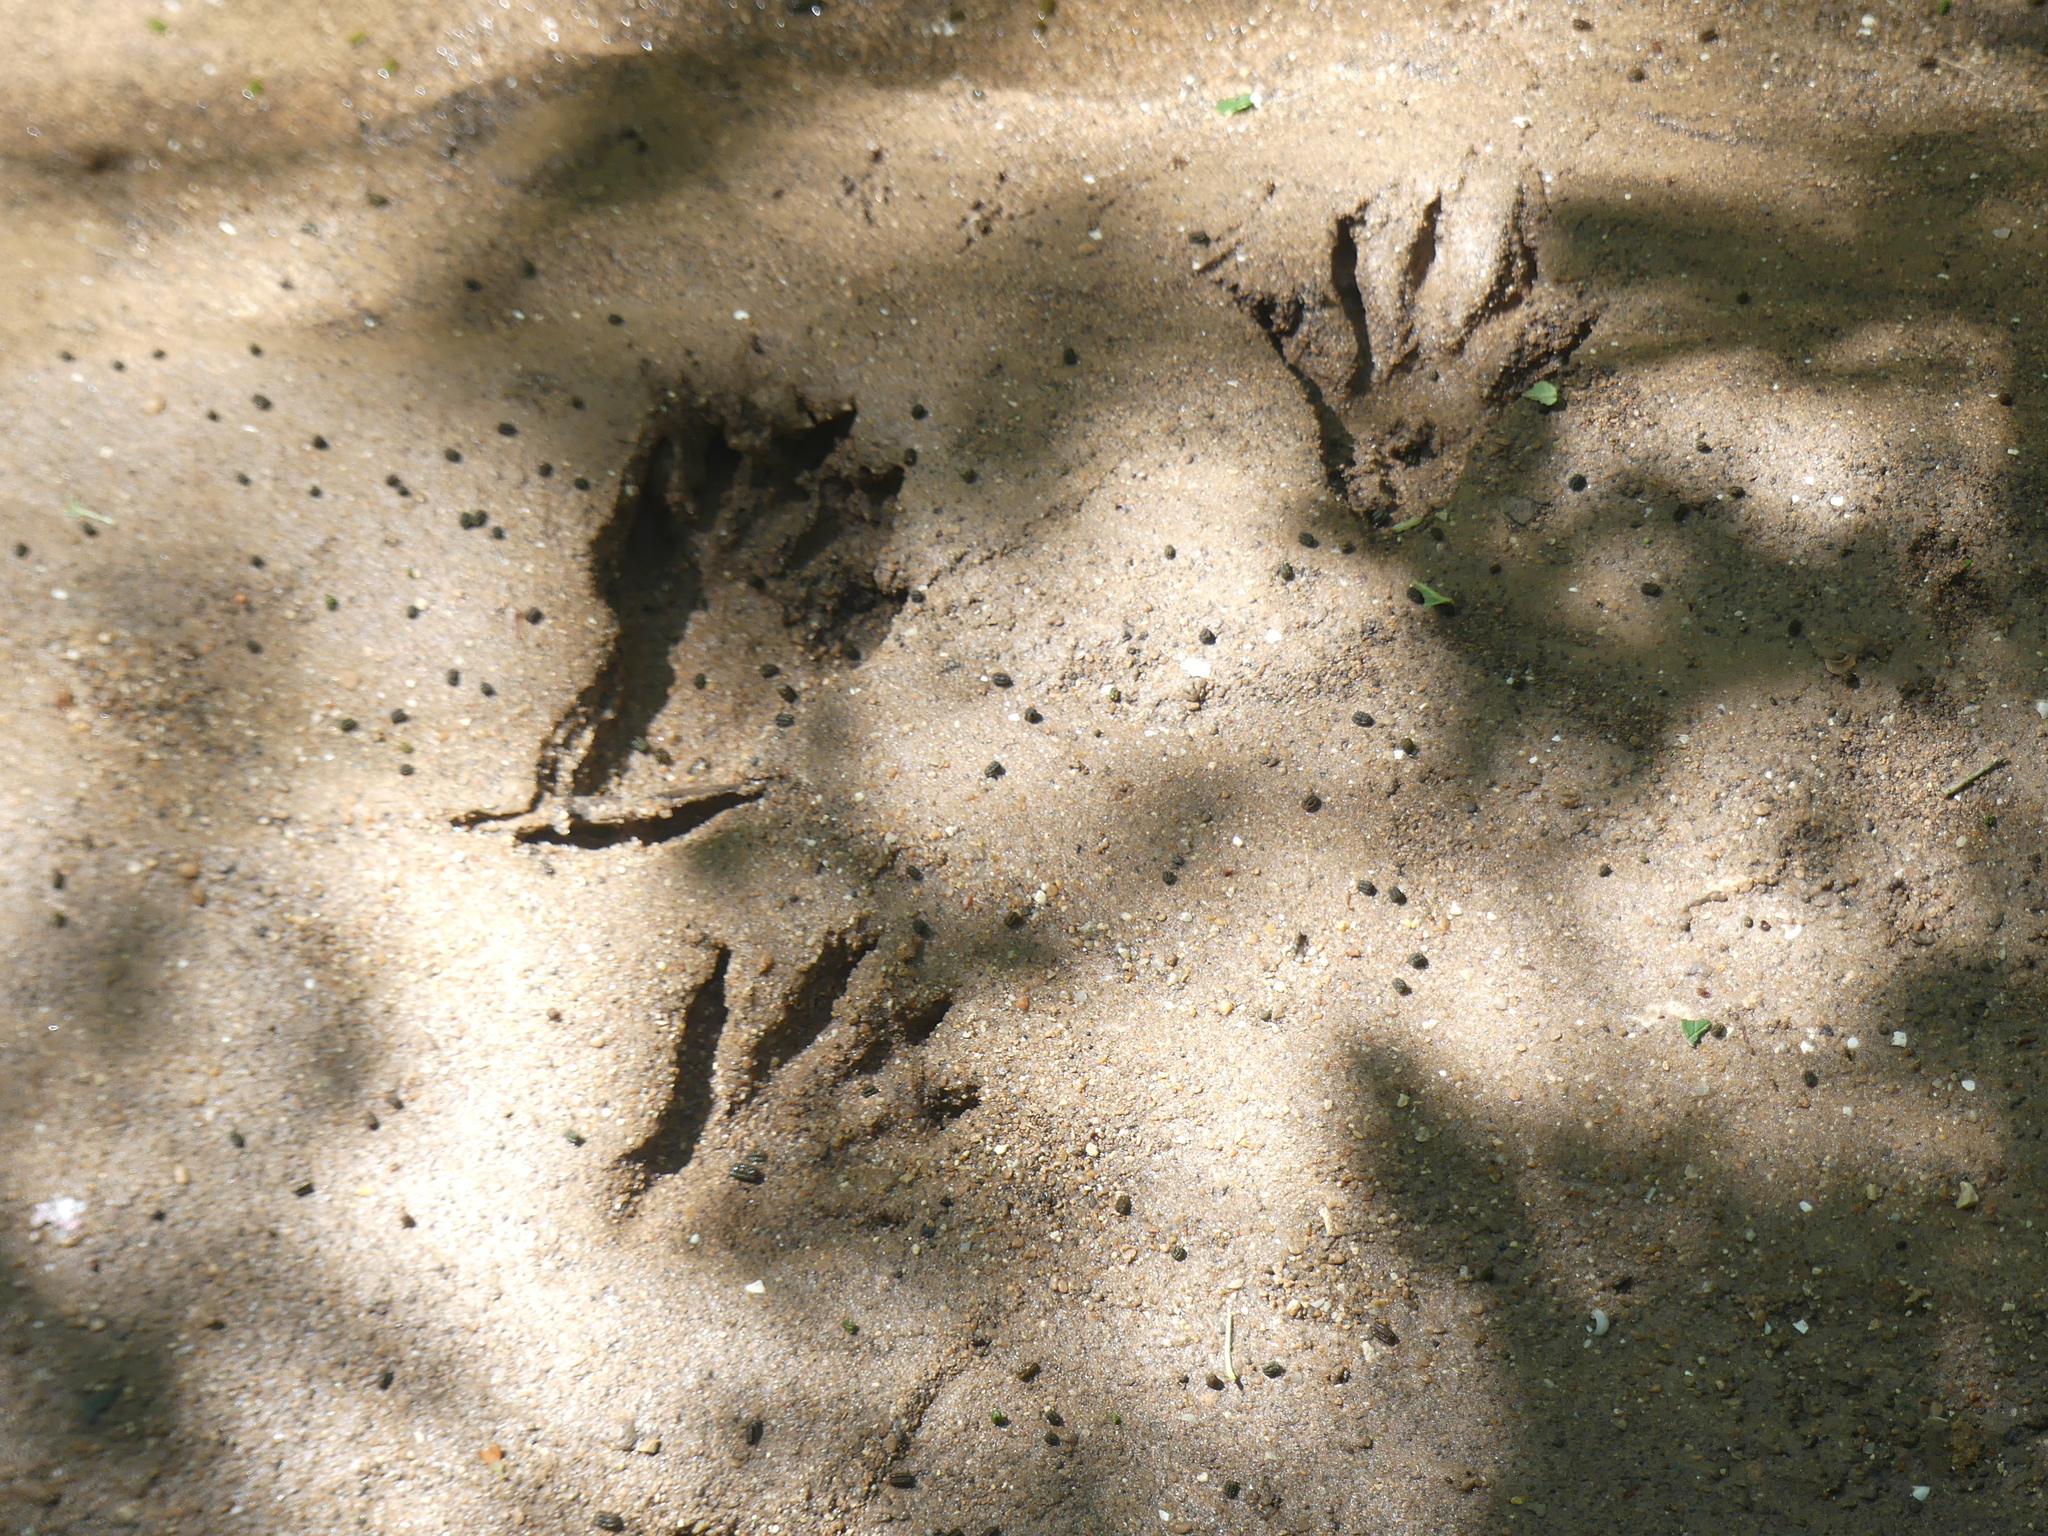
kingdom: Animalia
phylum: Chordata
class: Mammalia
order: Carnivora
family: Procyonidae
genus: Procyon
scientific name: Procyon lotor
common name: Raccoon
